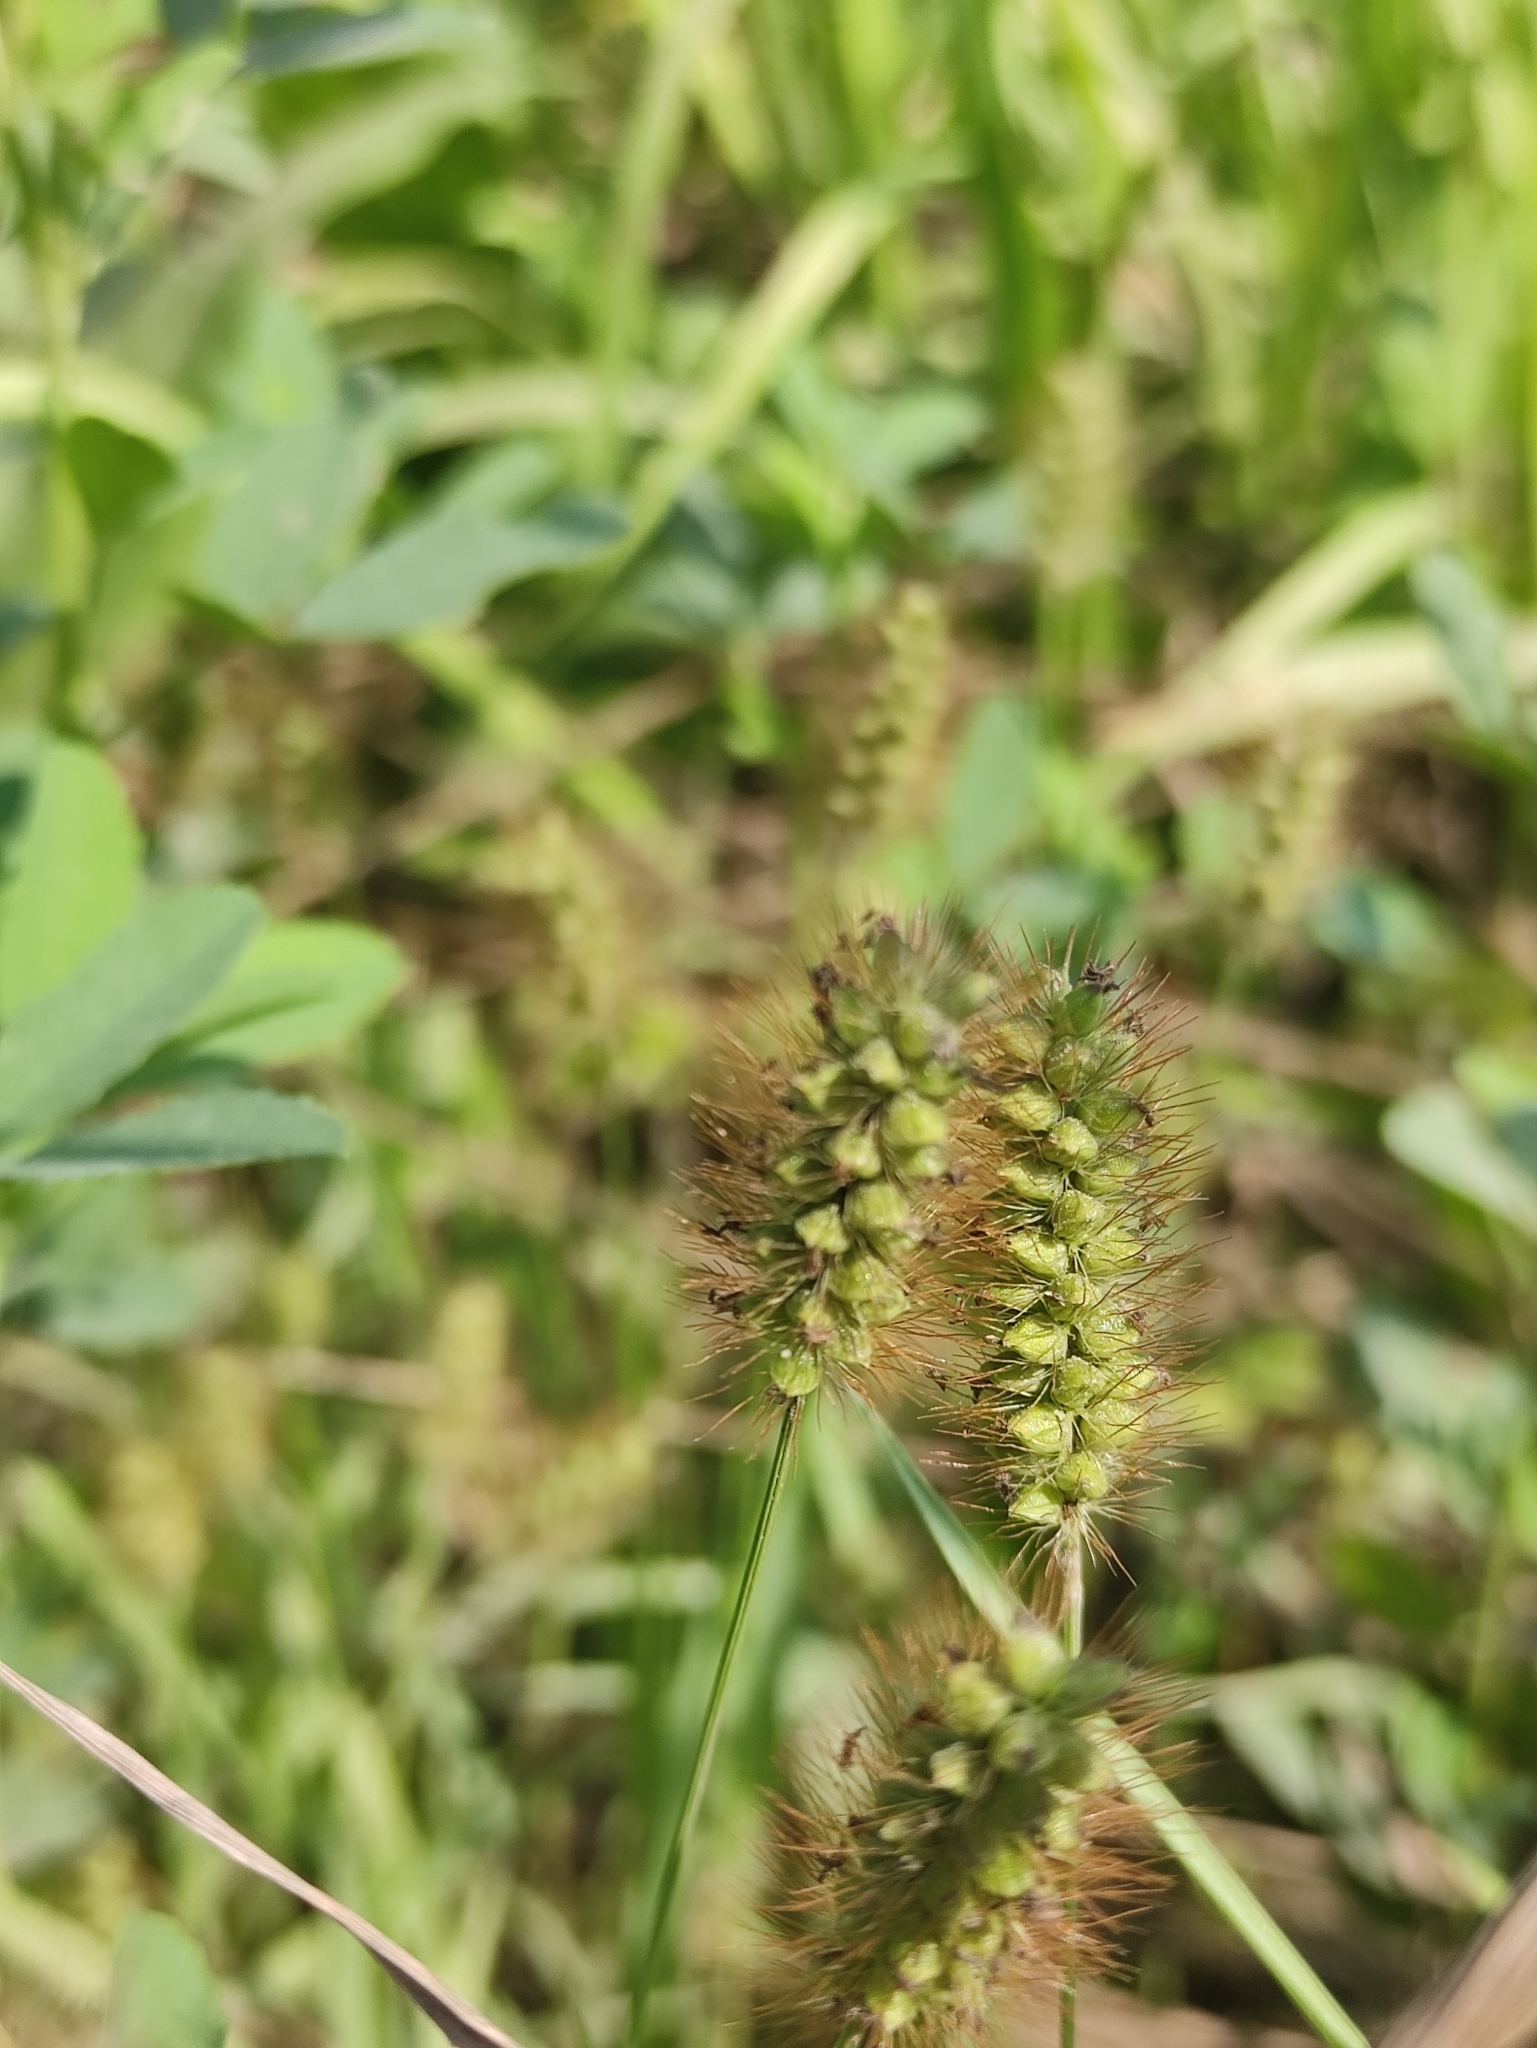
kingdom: Plantae
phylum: Tracheophyta
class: Liliopsida
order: Poales
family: Poaceae
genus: Setaria
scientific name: Setaria pumila
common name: Yellow bristle-grass
